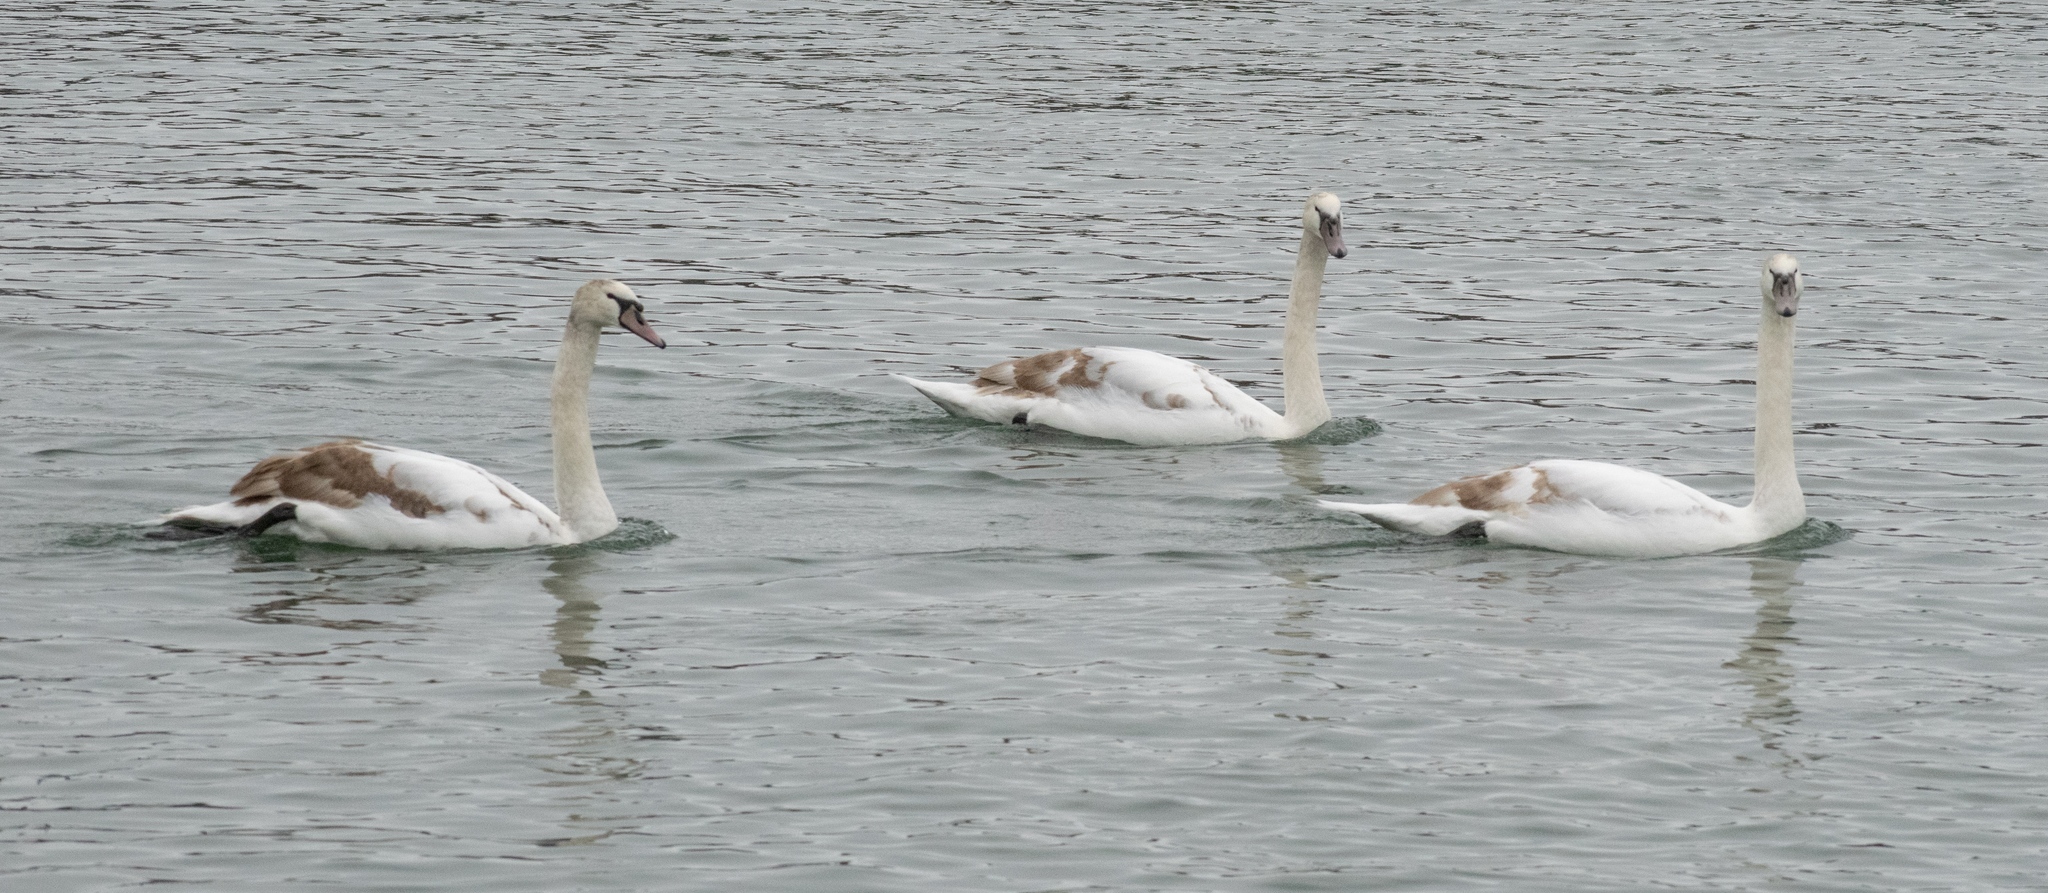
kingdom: Animalia
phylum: Chordata
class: Aves
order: Anseriformes
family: Anatidae
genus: Cygnus
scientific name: Cygnus olor
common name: Mute swan
